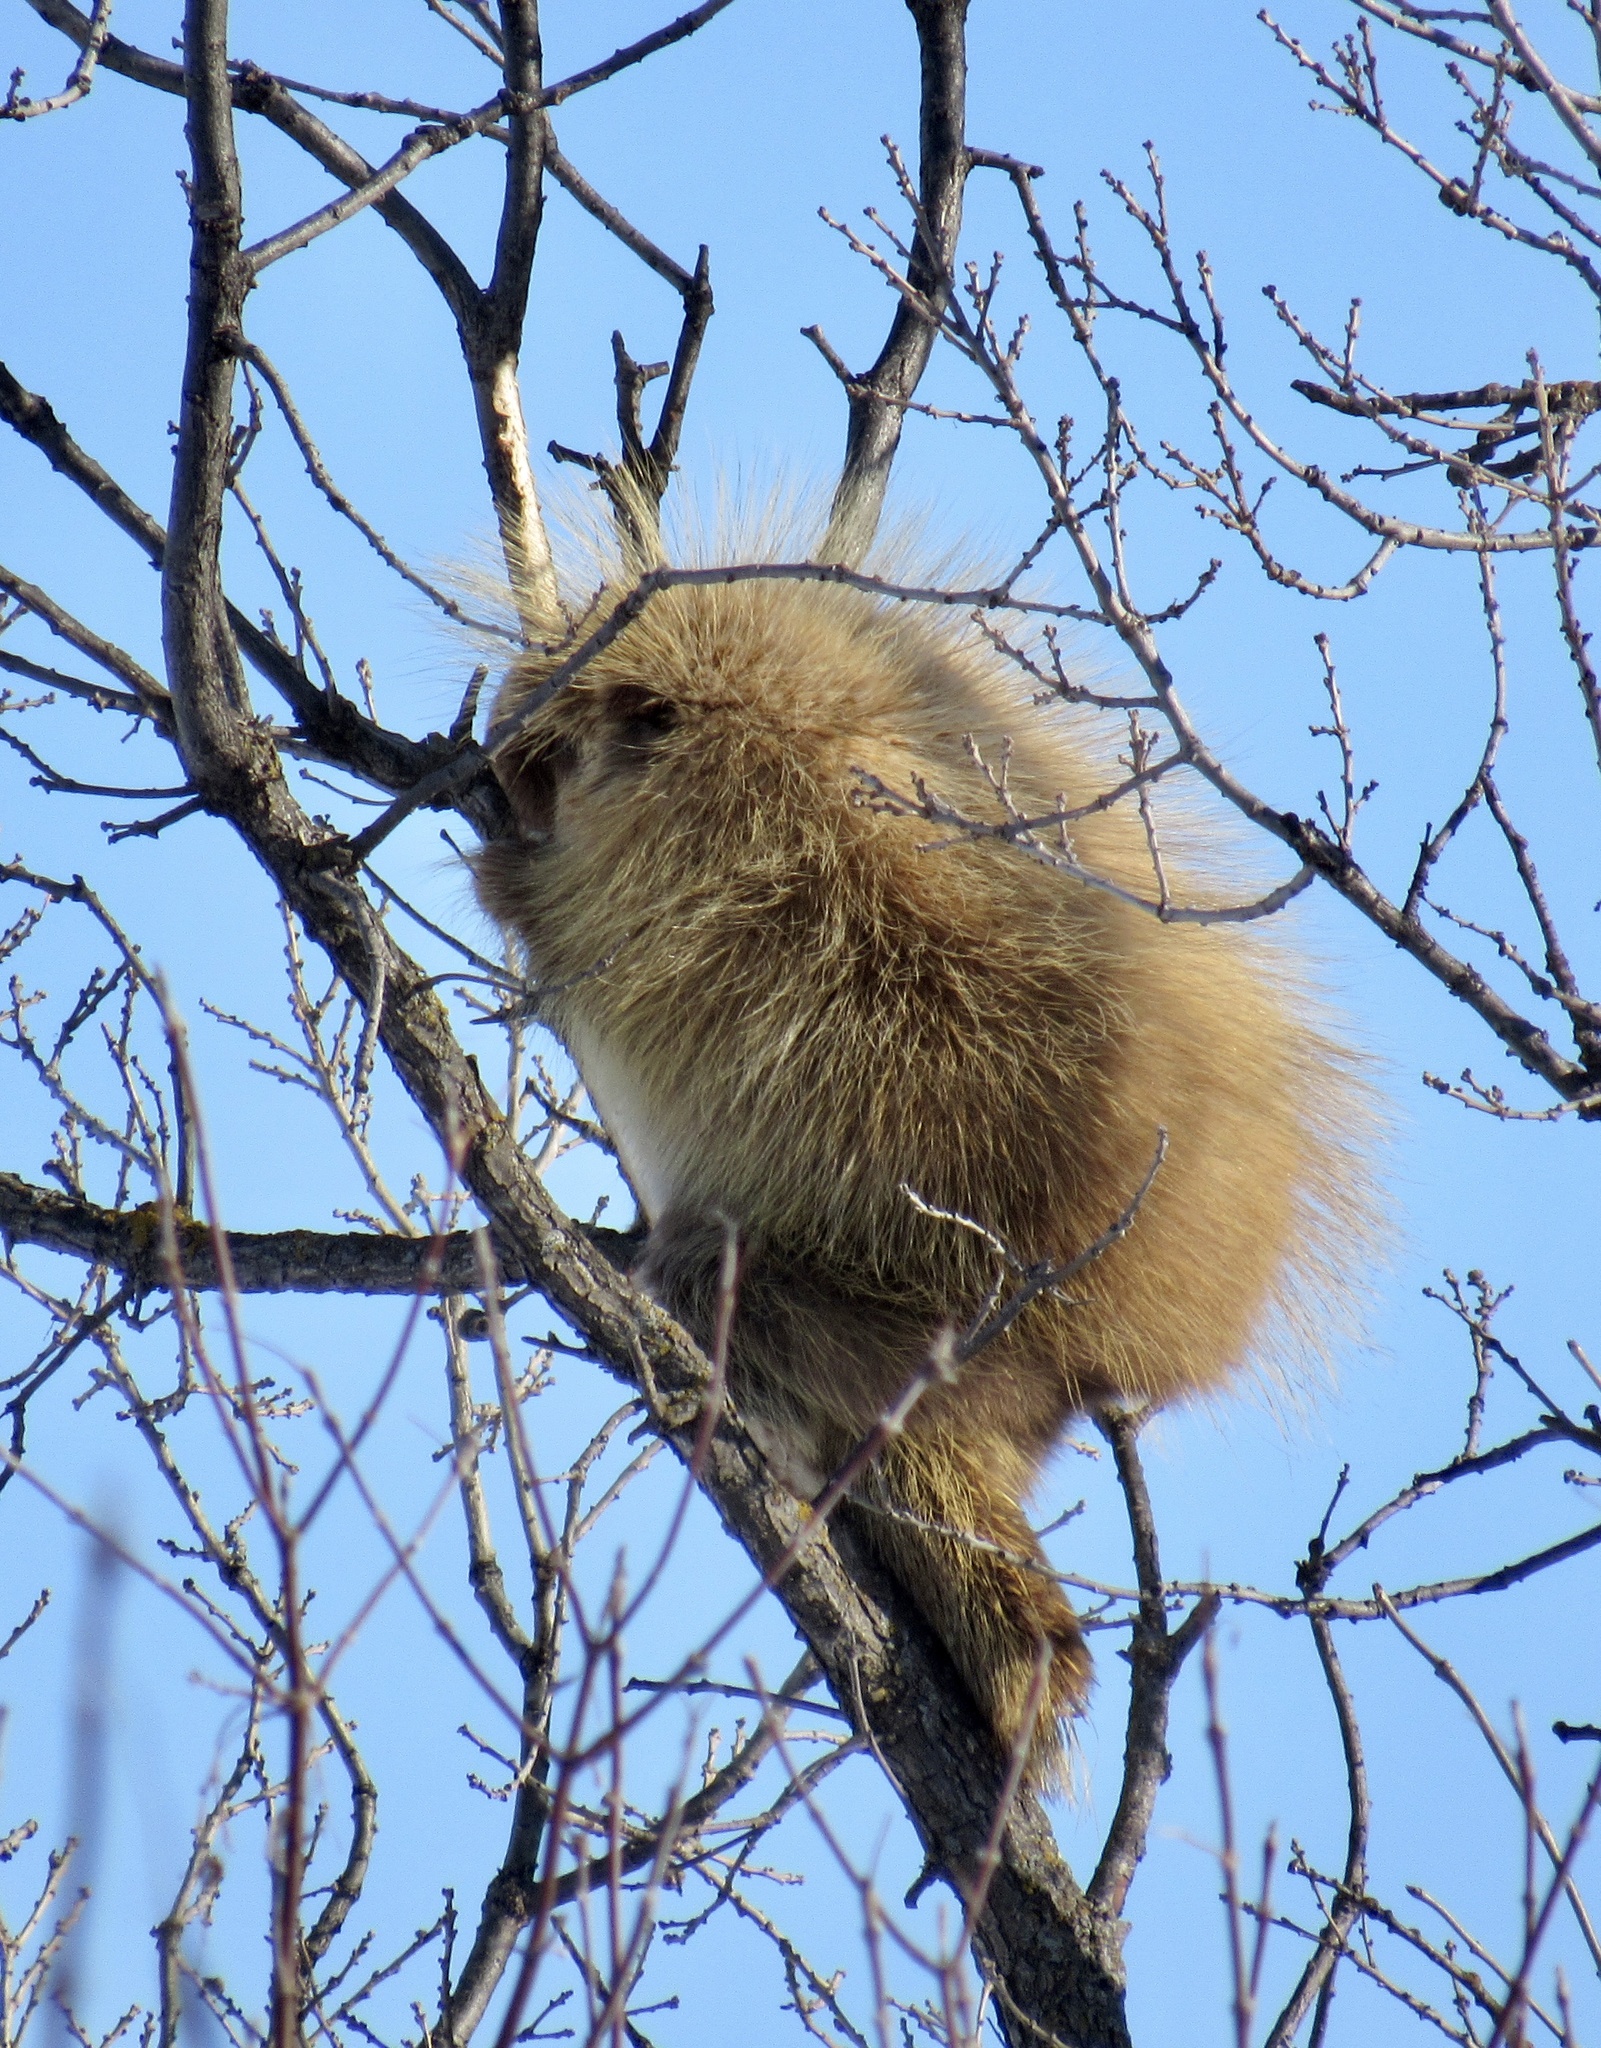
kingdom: Animalia
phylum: Chordata
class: Mammalia
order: Rodentia
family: Erethizontidae
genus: Erethizon
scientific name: Erethizon dorsatus
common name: North american porcupine
